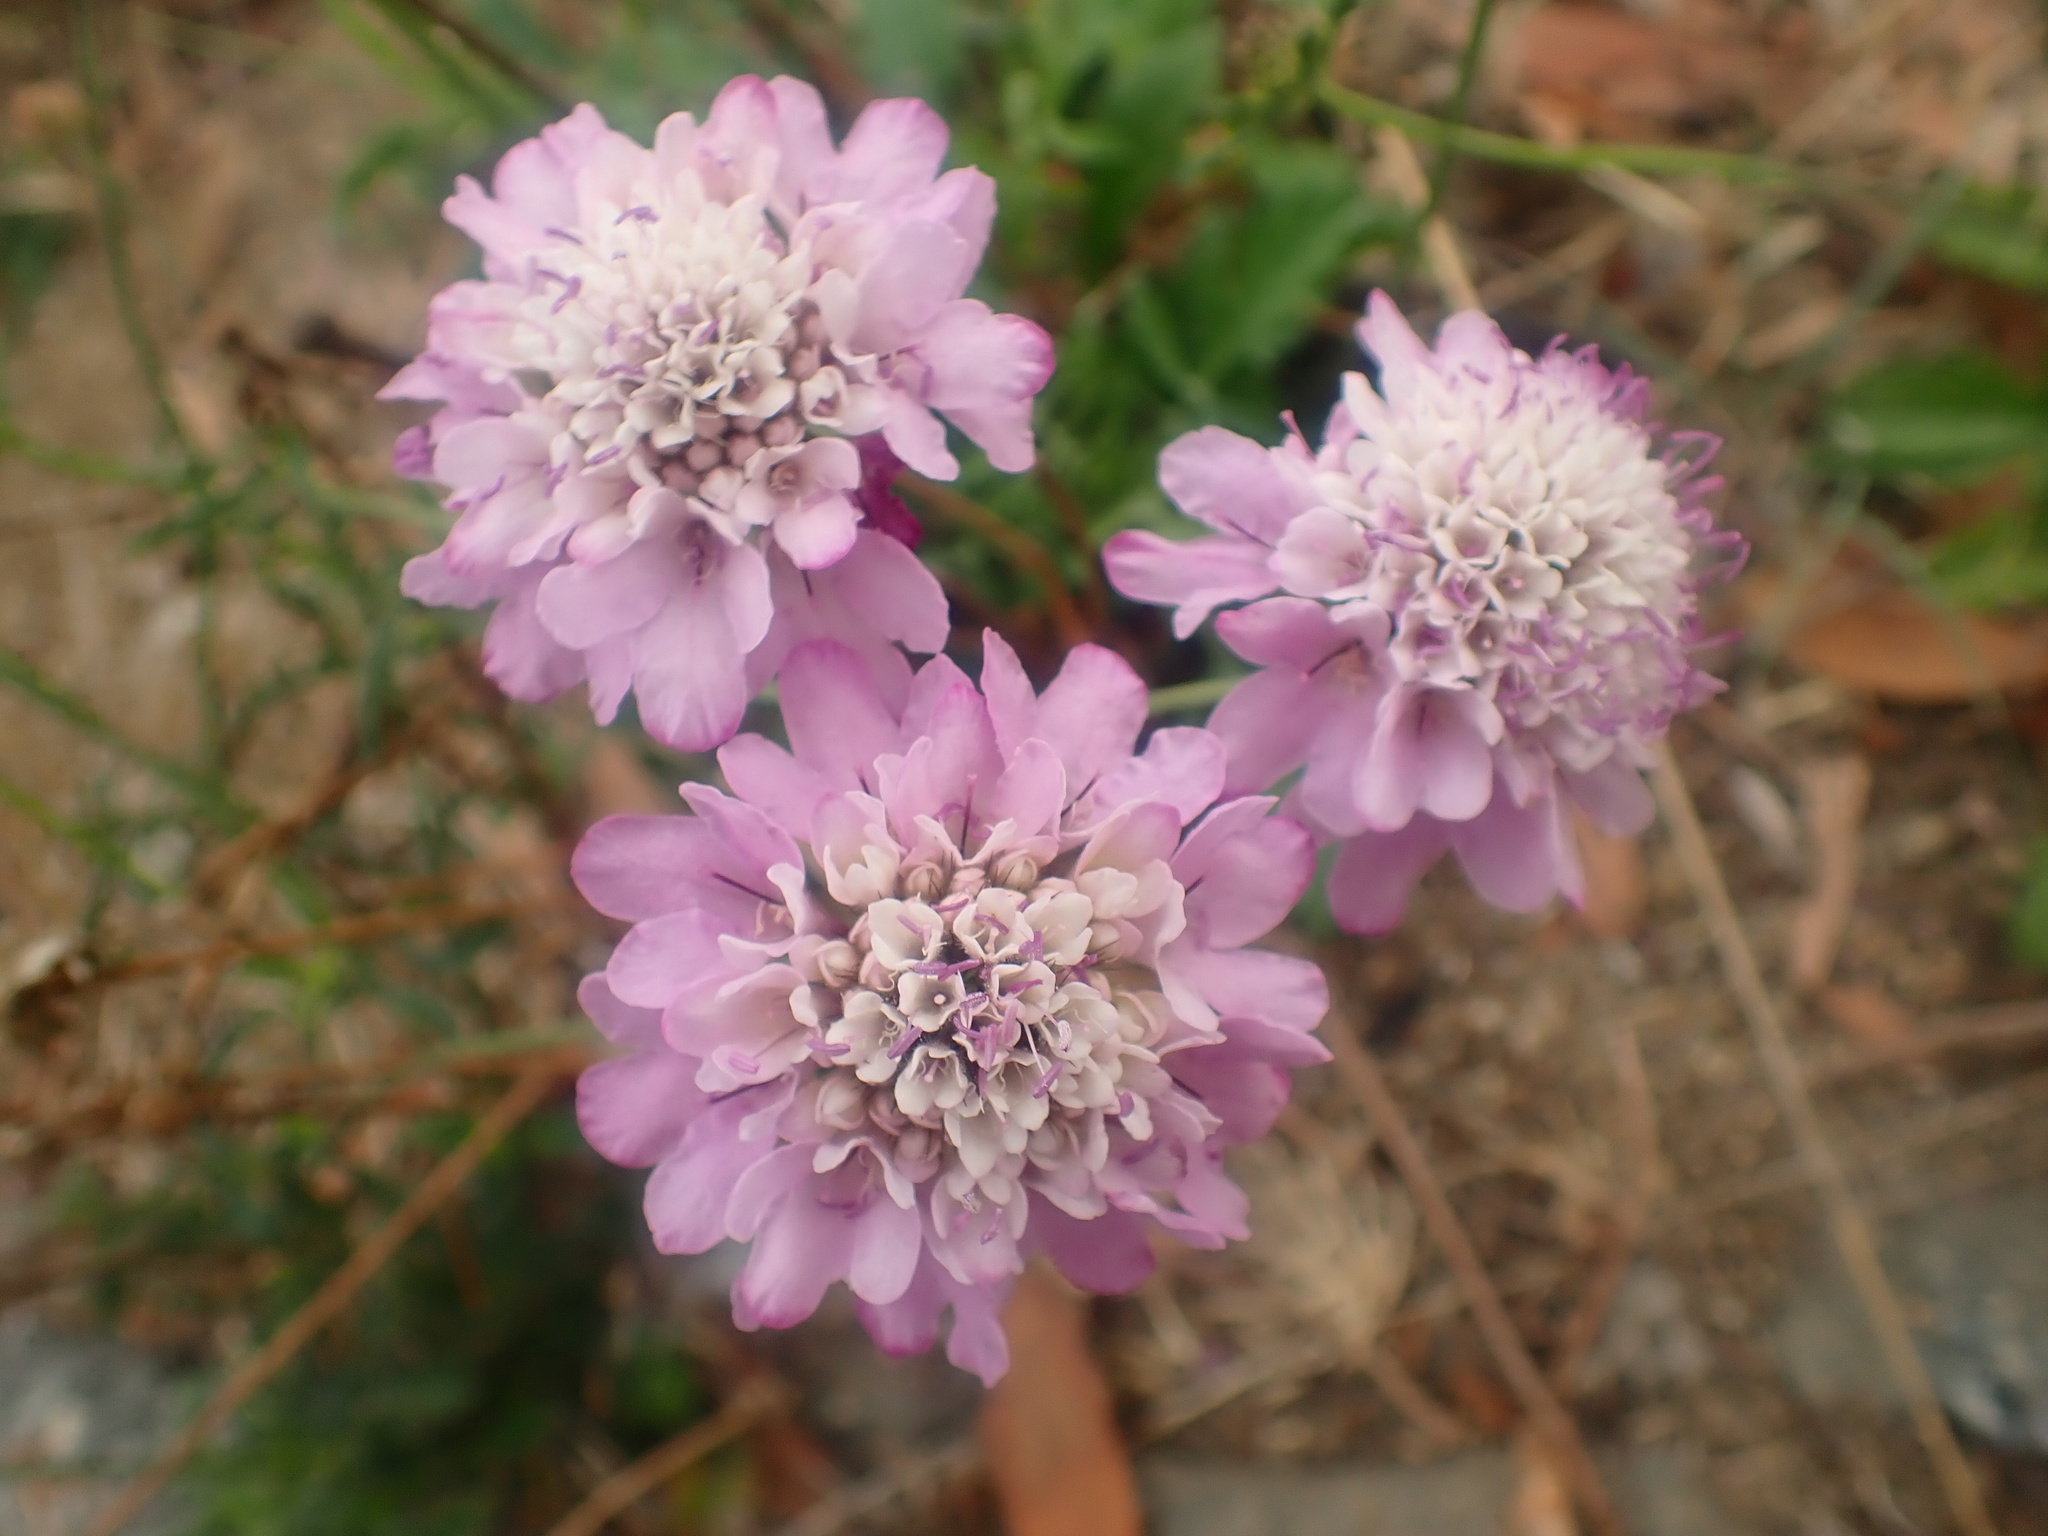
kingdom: Plantae
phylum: Tracheophyta
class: Magnoliopsida
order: Dipsacales
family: Caprifoliaceae
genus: Sixalix
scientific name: Sixalix atropurpurea
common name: Sweet scabious
